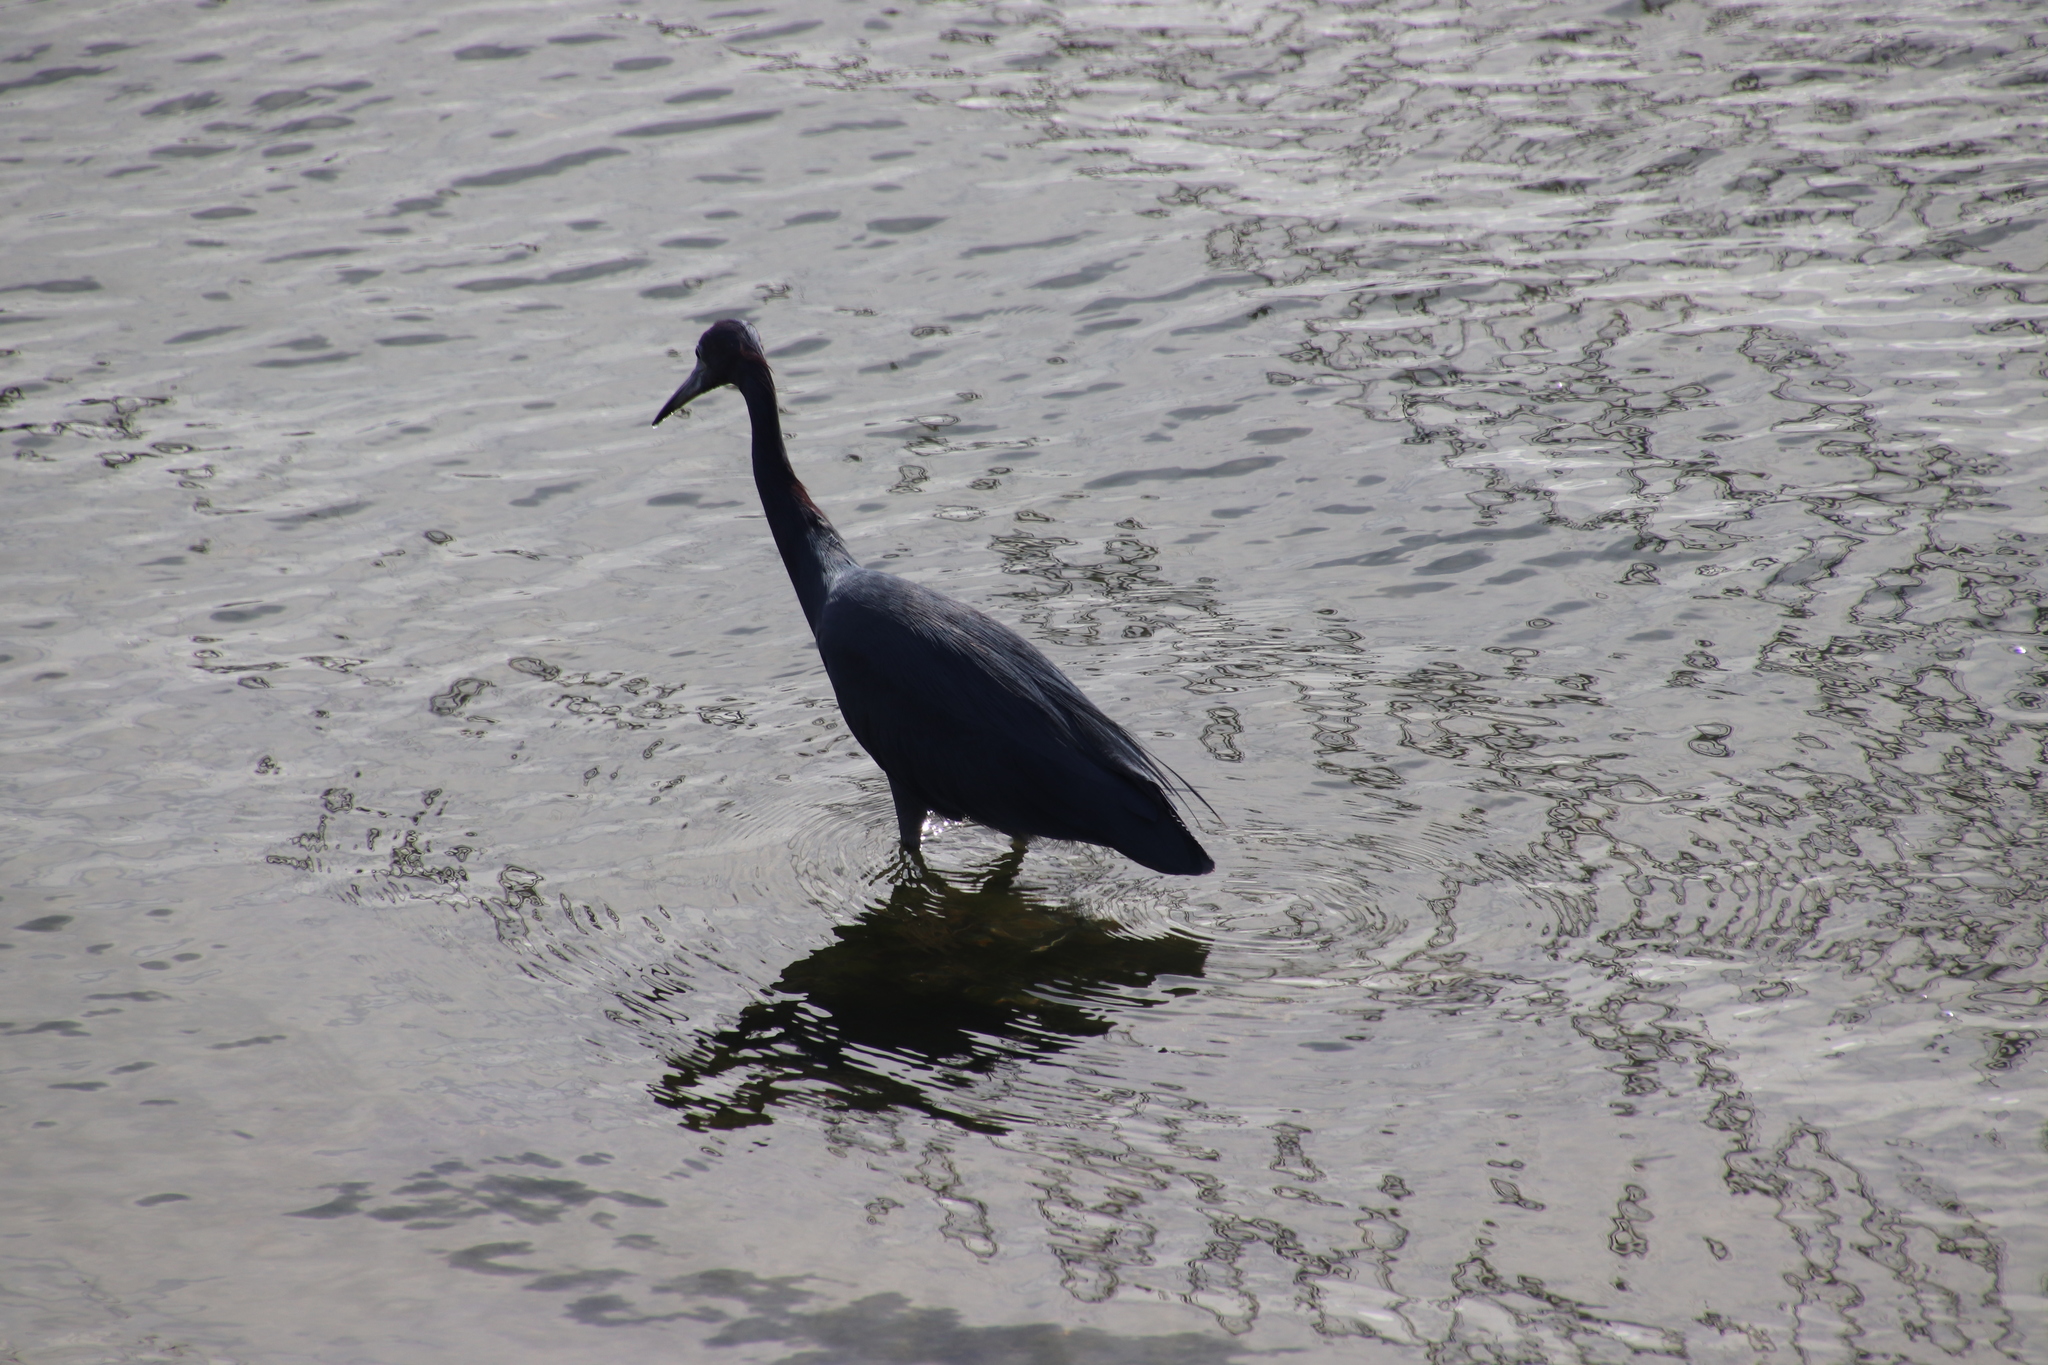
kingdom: Animalia
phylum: Chordata
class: Aves
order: Pelecaniformes
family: Ardeidae
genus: Egretta
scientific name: Egretta caerulea
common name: Little blue heron
